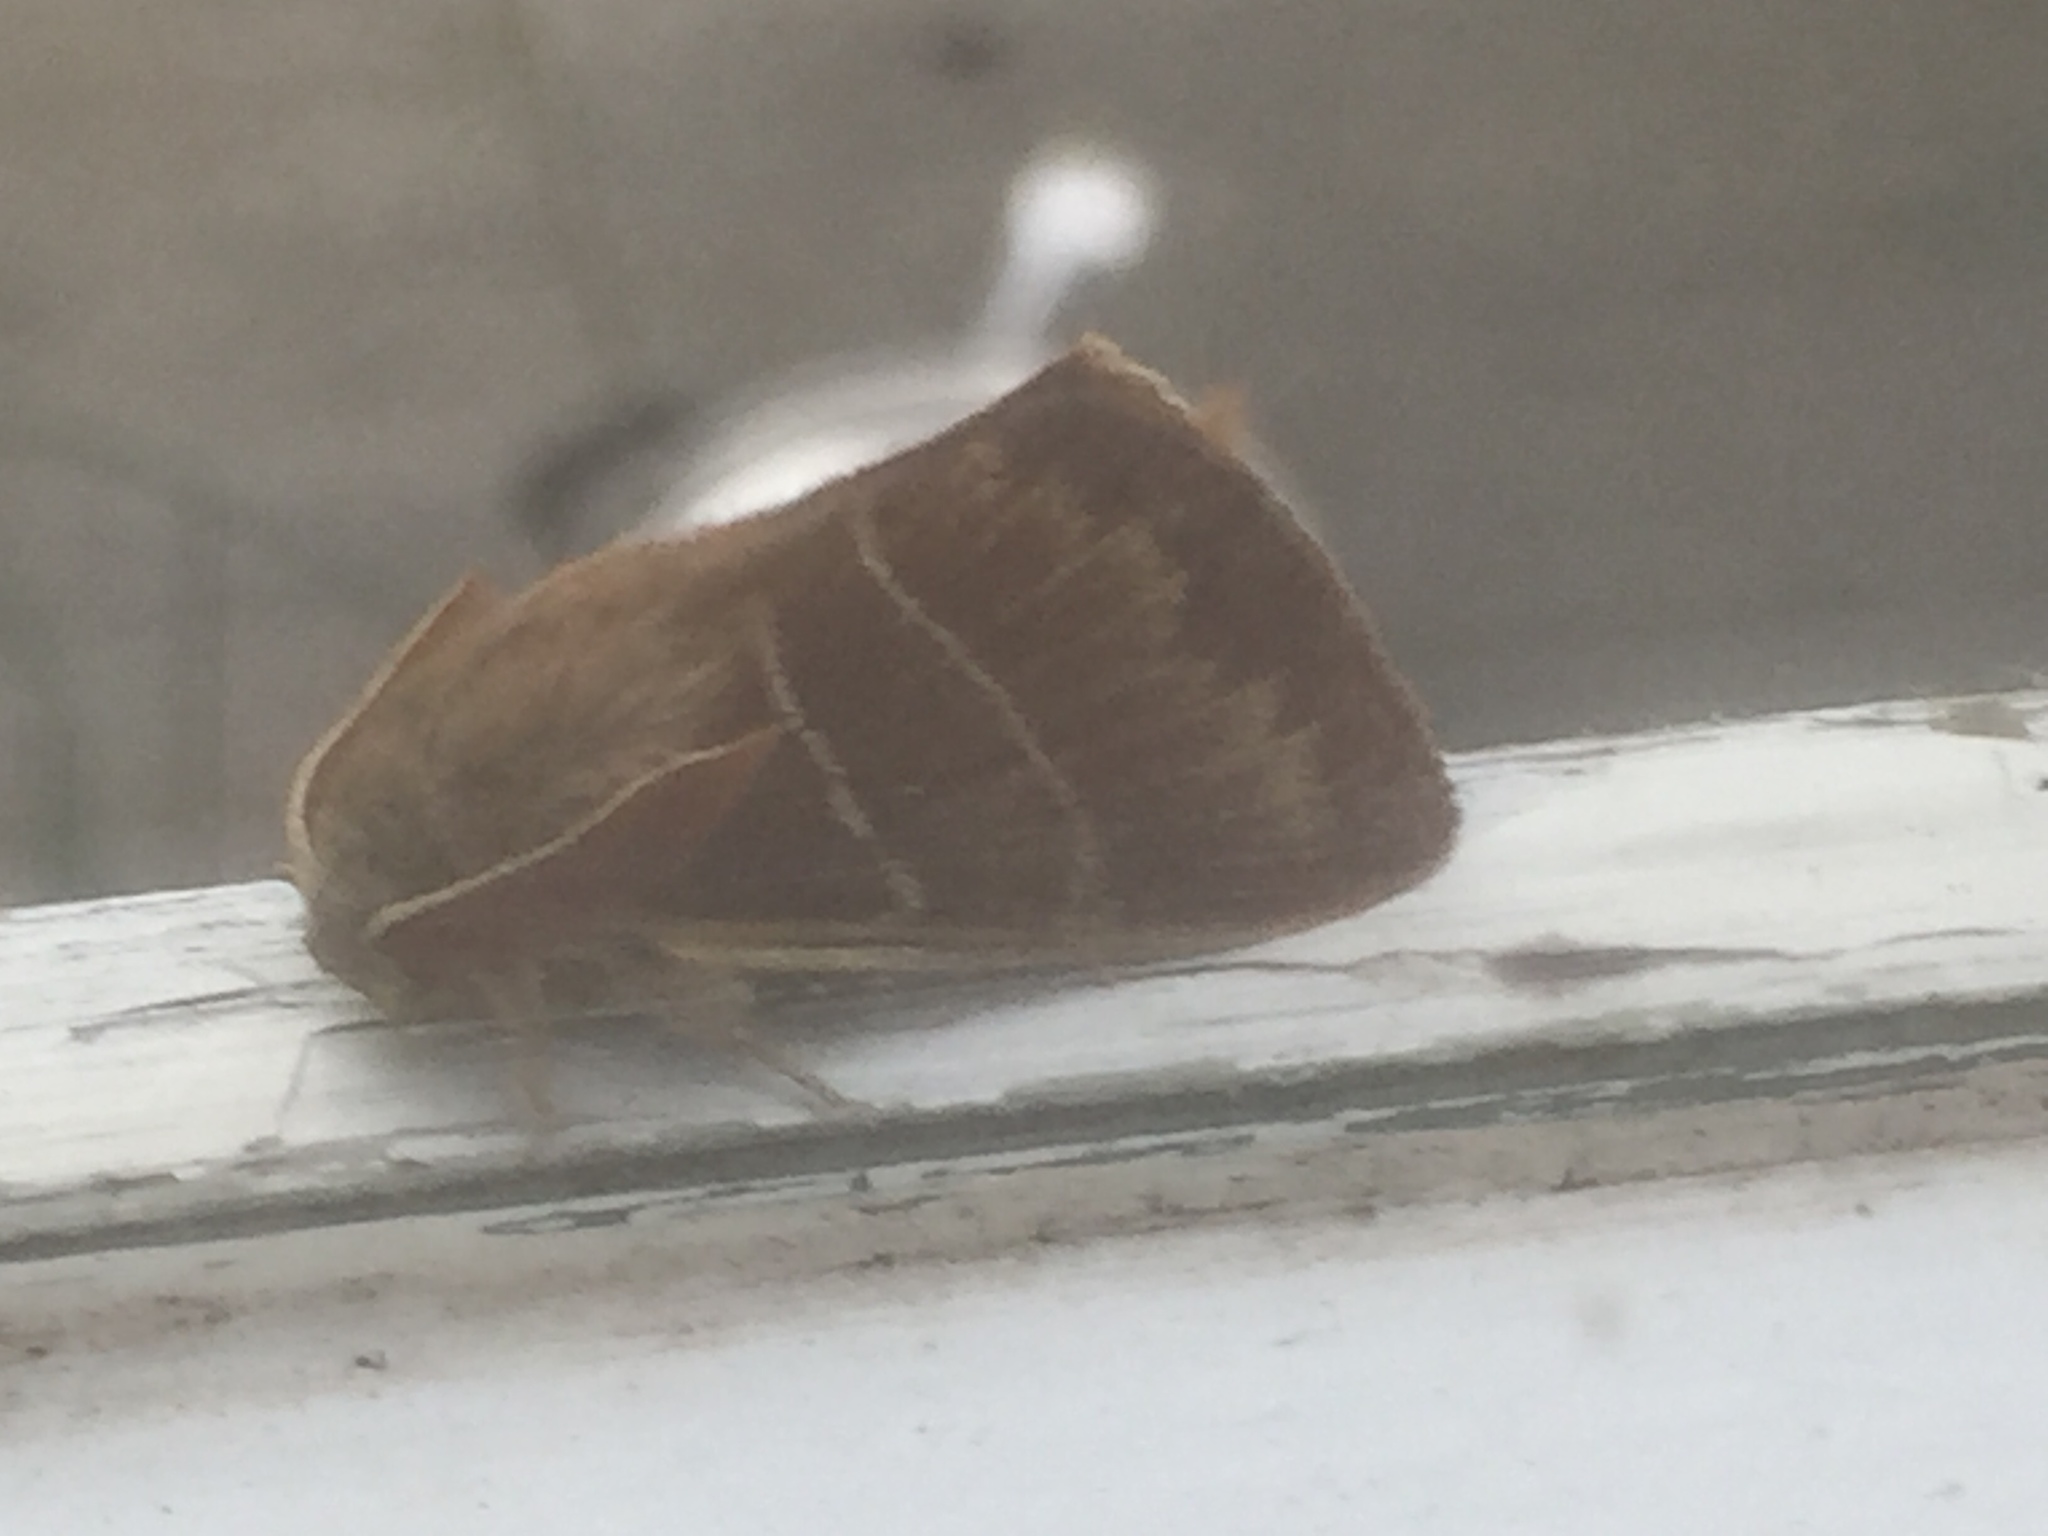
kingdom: Animalia
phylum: Arthropoda
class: Insecta
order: Lepidoptera
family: Lasiocampidae
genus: Macrothylacia
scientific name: Macrothylacia rubi
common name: Fox moth
